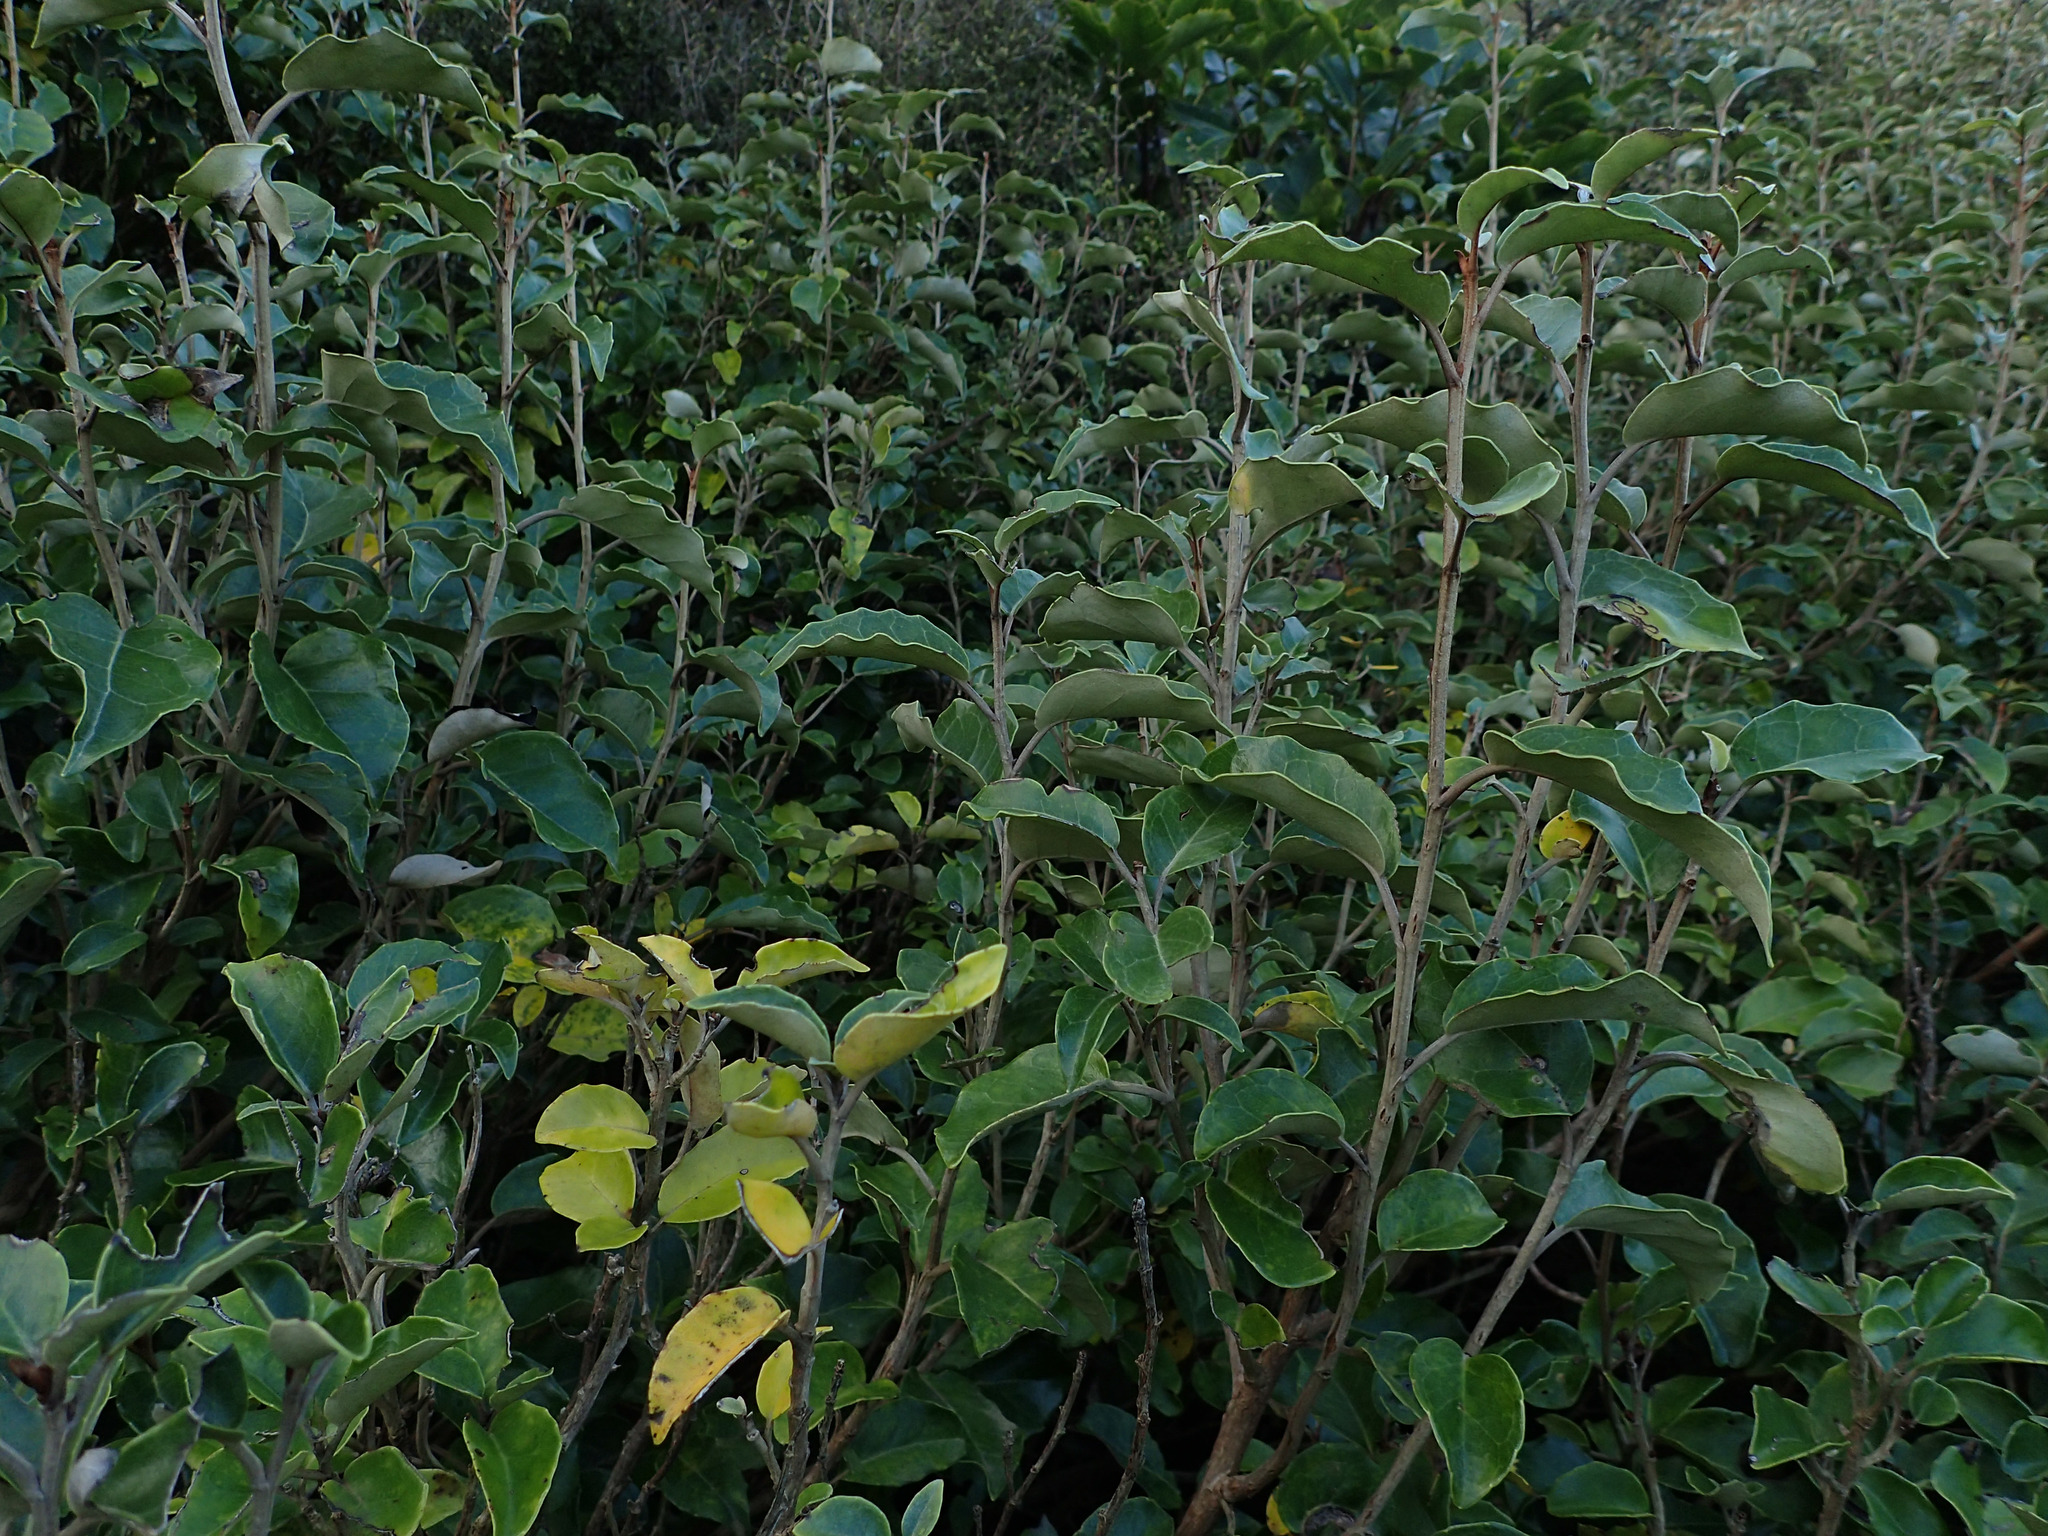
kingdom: Plantae
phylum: Tracheophyta
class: Magnoliopsida
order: Asterales
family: Asteraceae
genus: Olearia
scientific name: Olearia arborescens
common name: Glossy tree daisy
